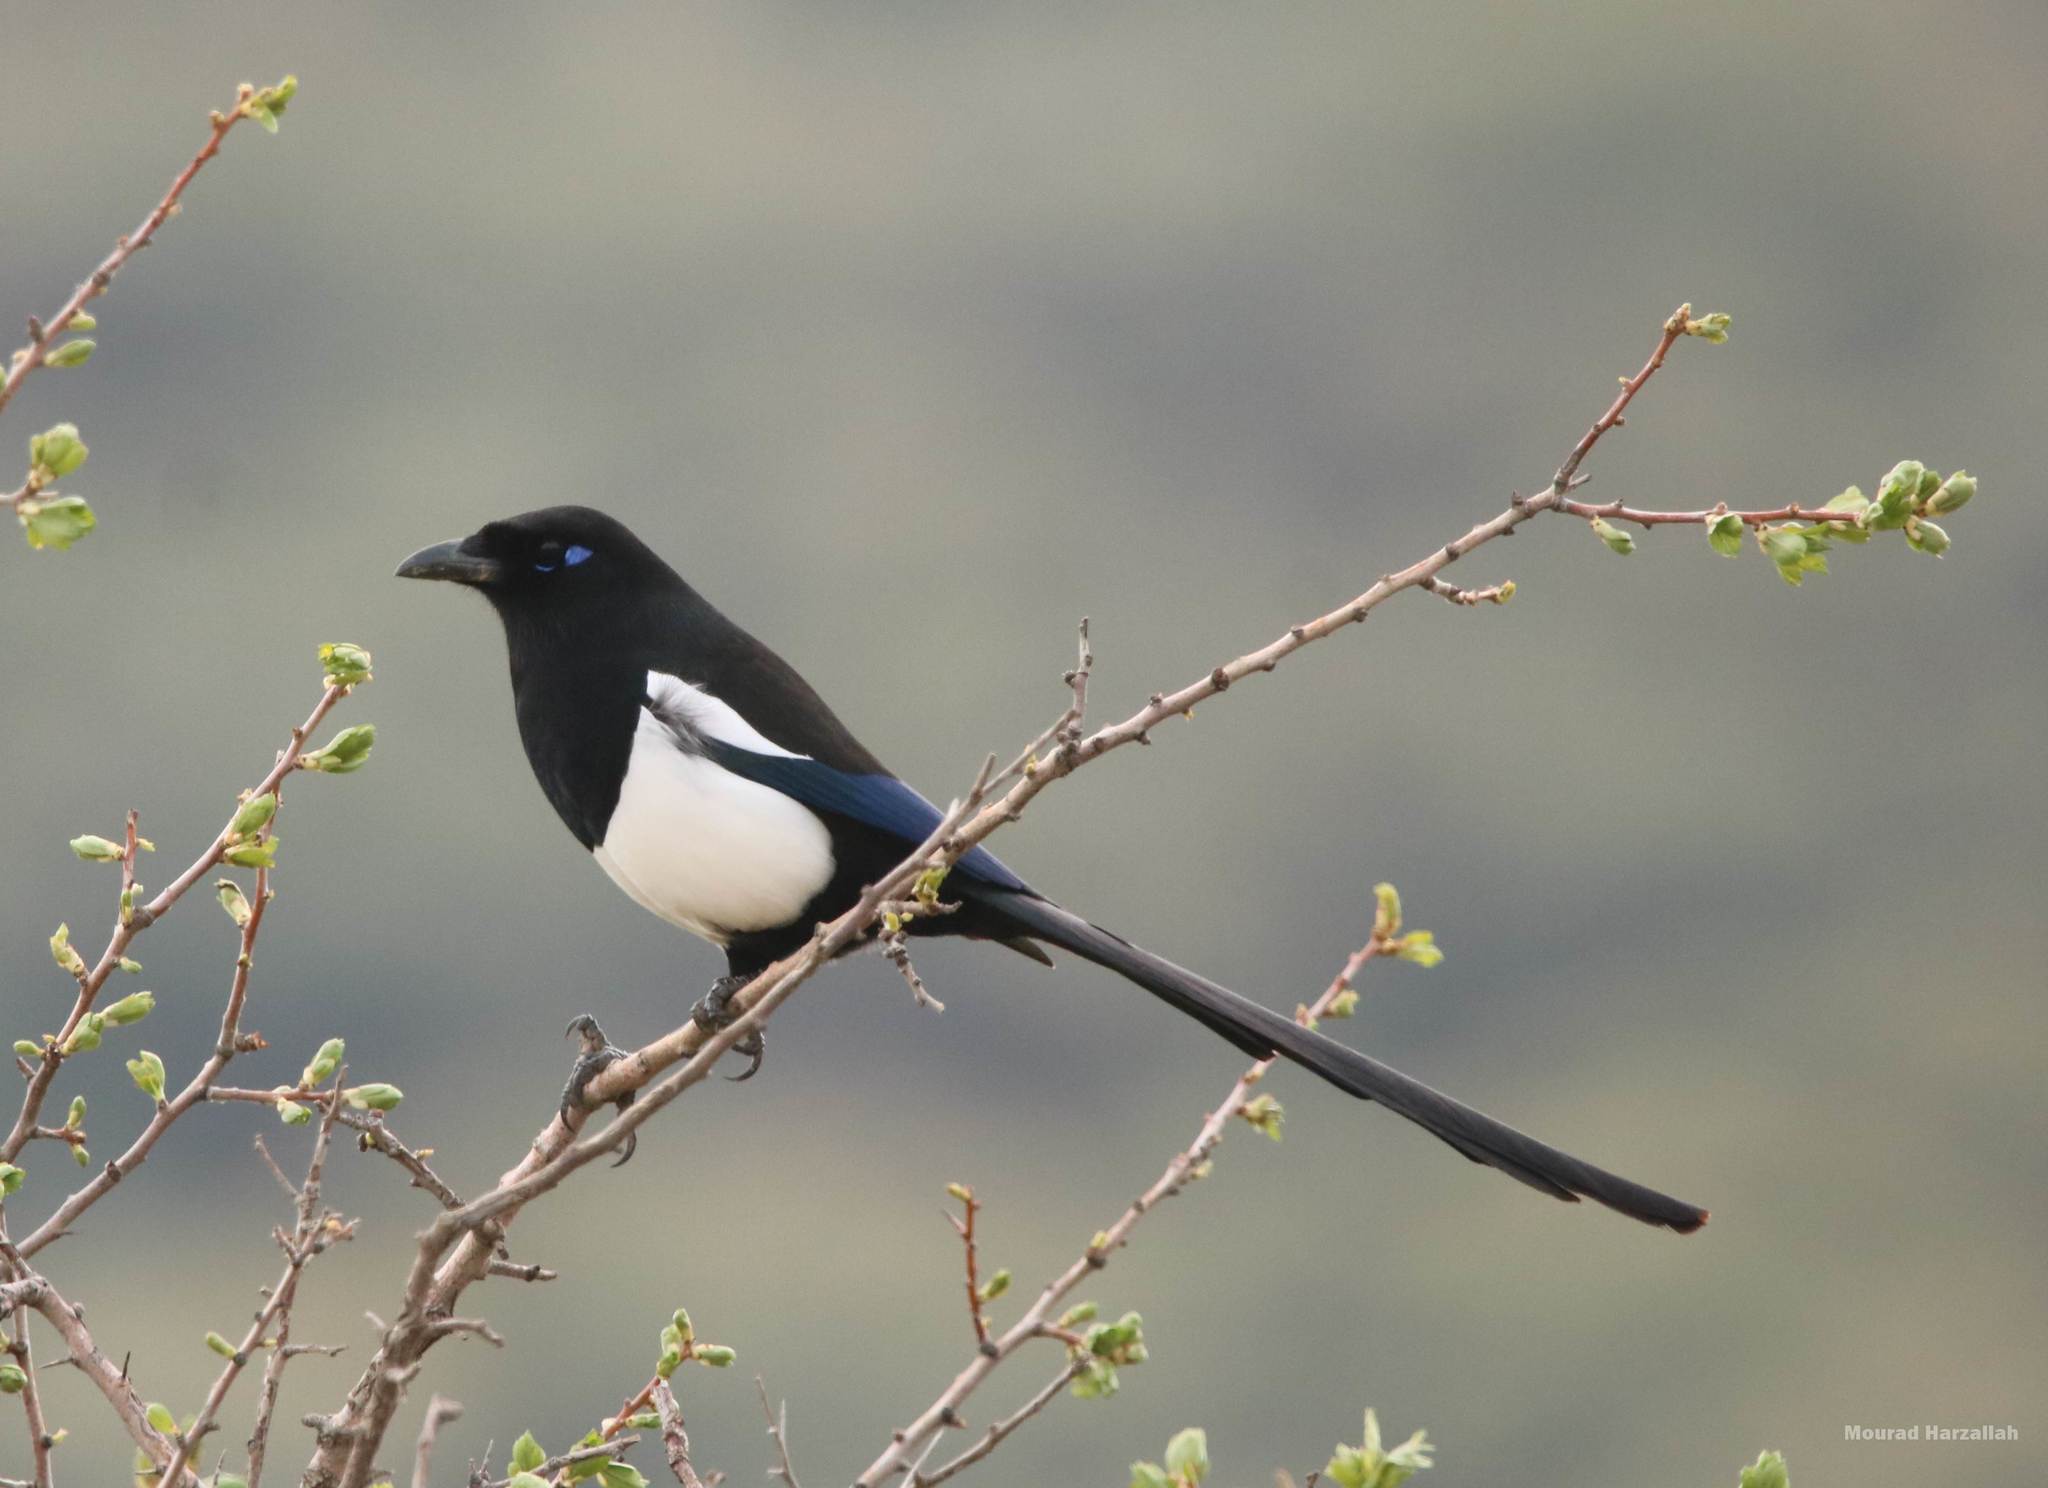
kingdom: Animalia
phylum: Chordata
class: Aves
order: Passeriformes
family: Corvidae
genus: Pica
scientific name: Pica mauritanica
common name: Maghreb magpie
